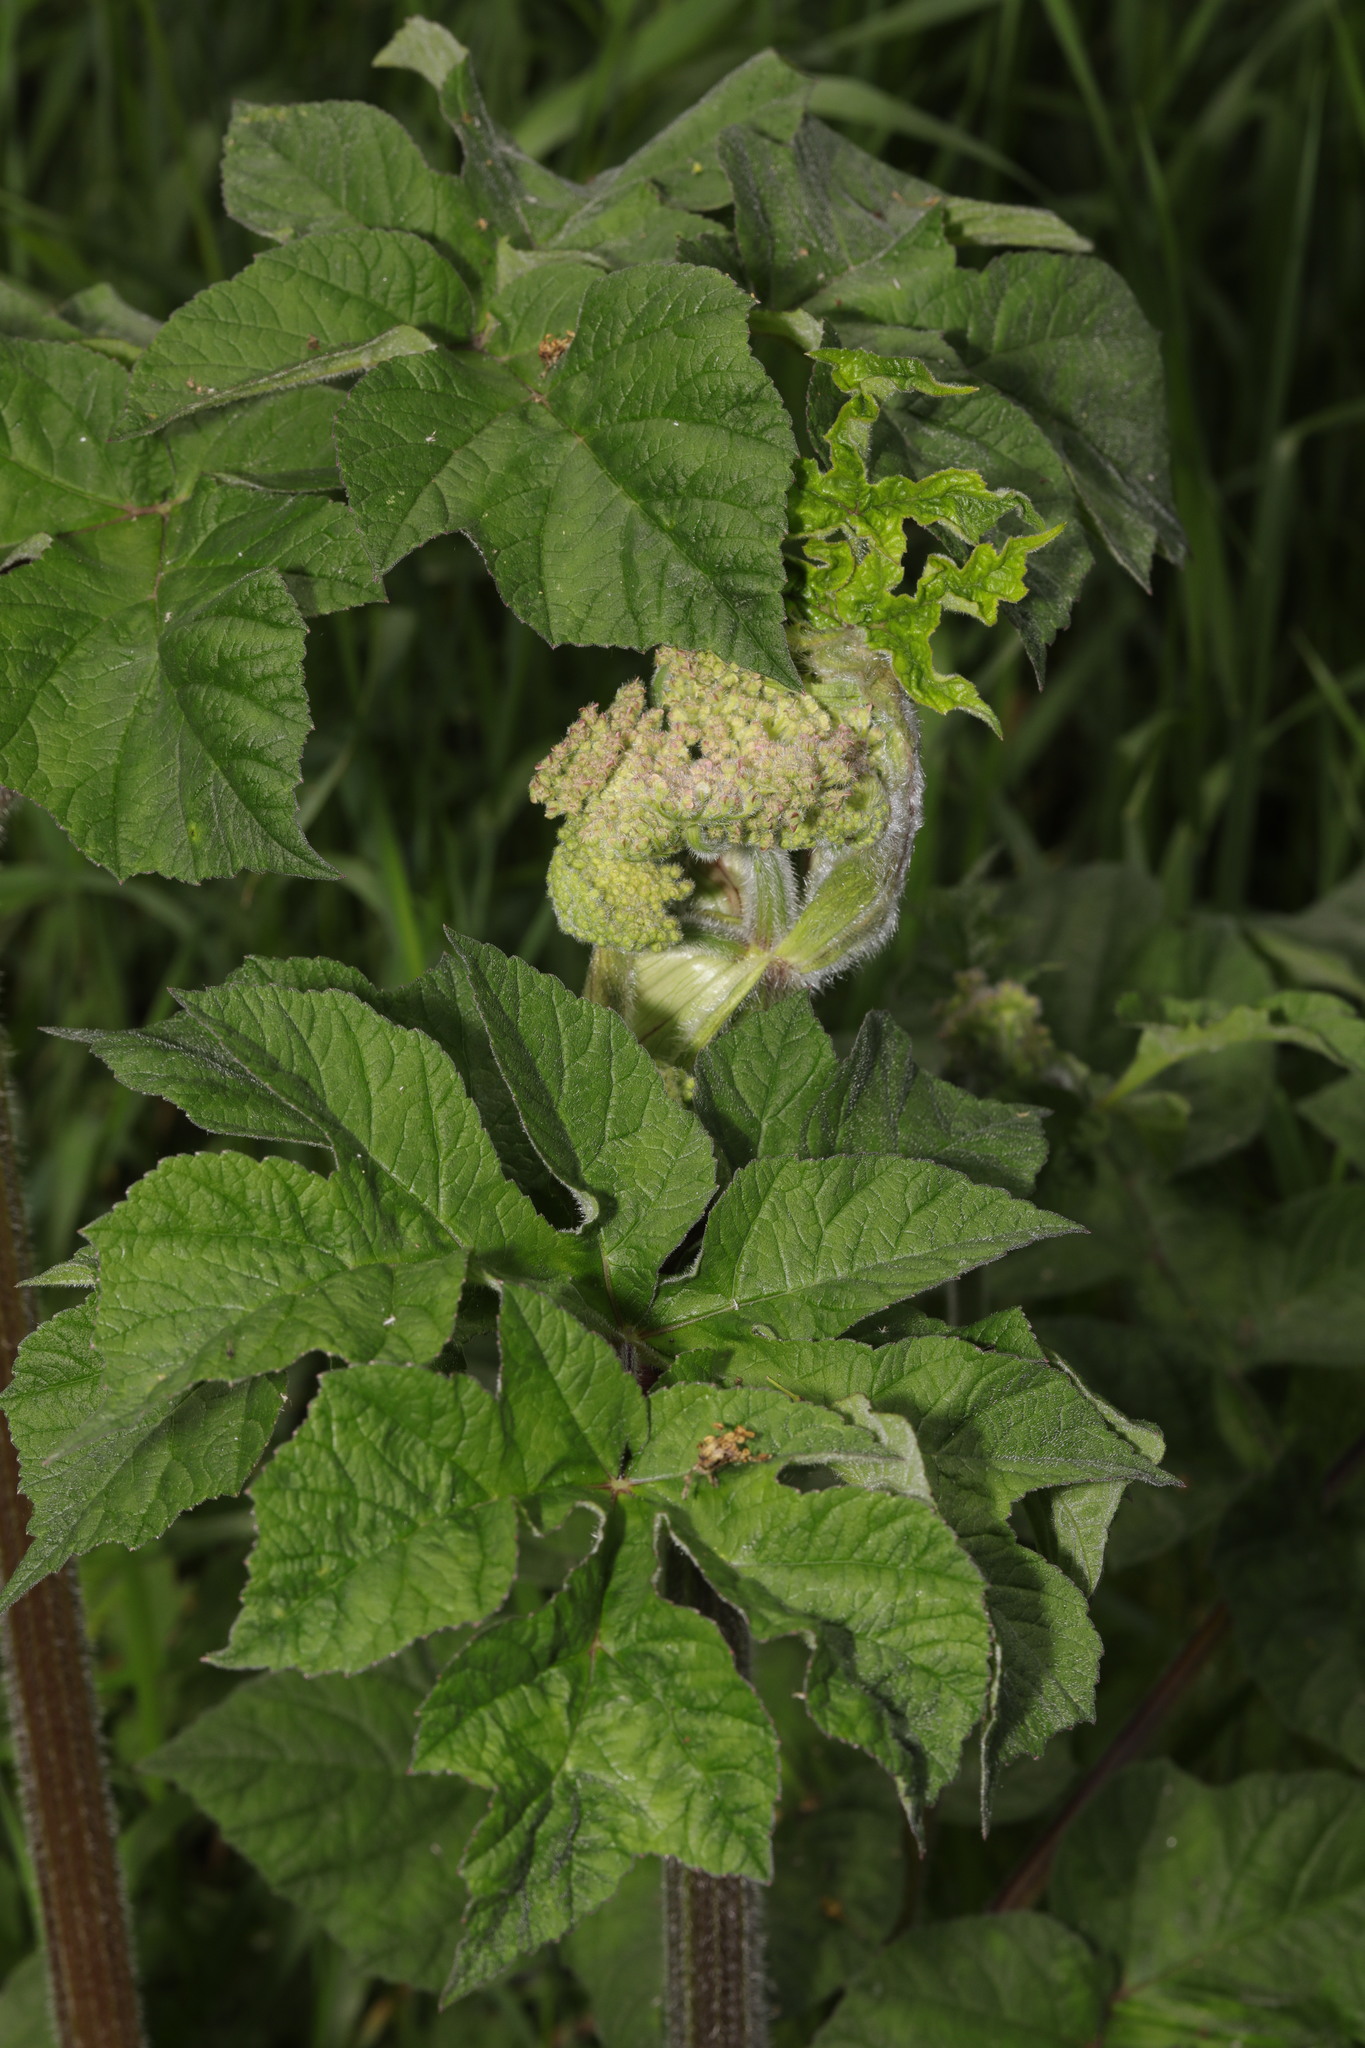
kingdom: Plantae
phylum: Tracheophyta
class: Magnoliopsida
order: Apiales
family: Apiaceae
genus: Heracleum
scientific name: Heracleum sphondylium
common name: Hogweed
